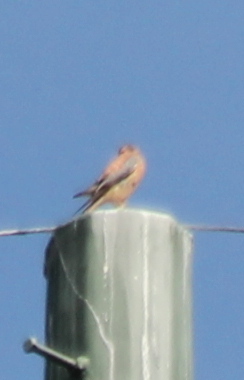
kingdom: Animalia
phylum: Chordata
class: Aves
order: Falconiformes
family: Falconidae
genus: Falco
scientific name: Falco sparverius
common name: American kestrel
